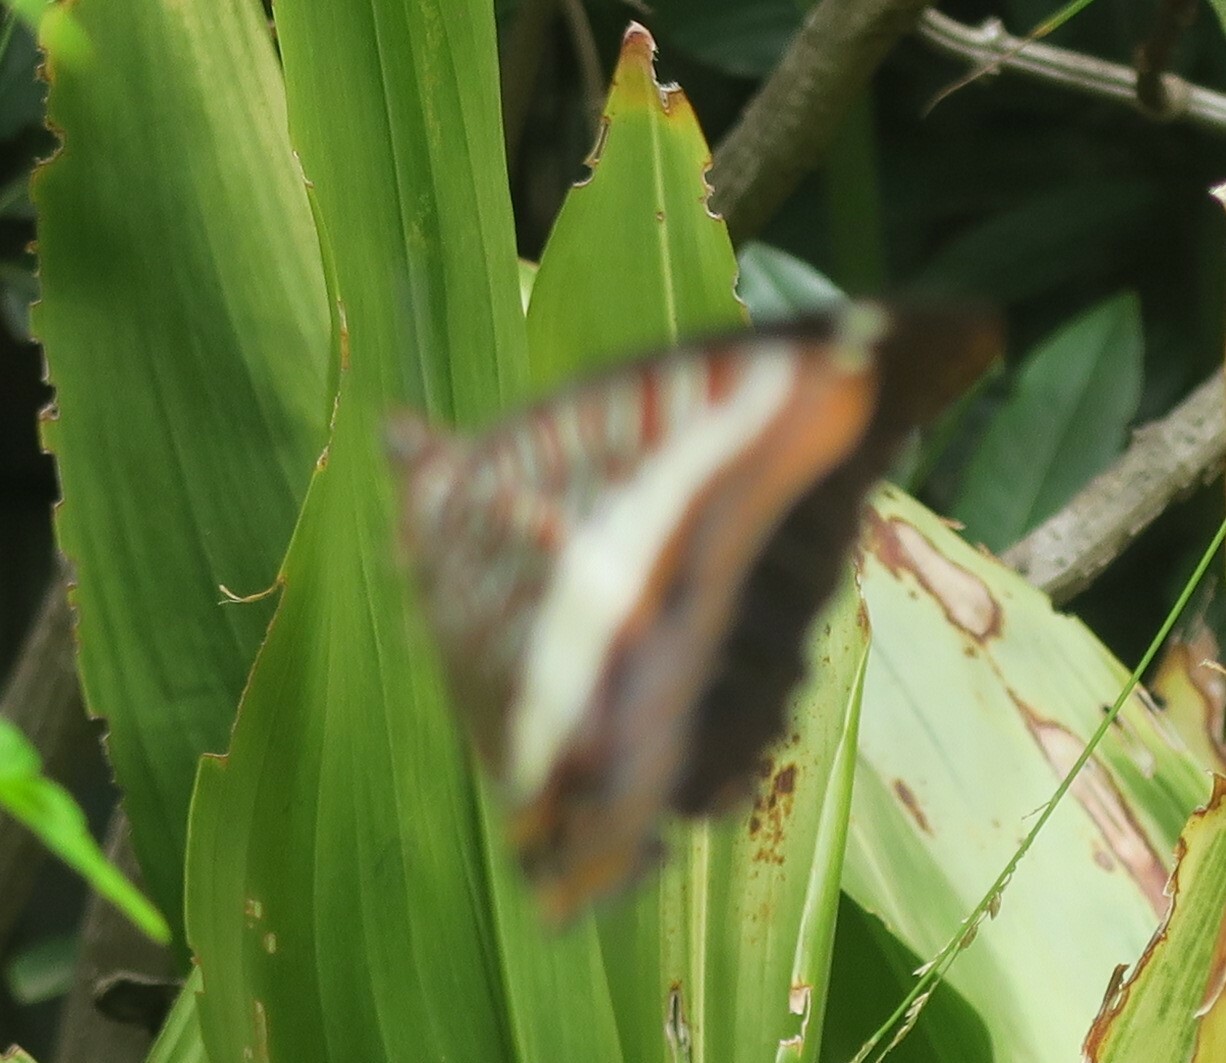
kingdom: Animalia
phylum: Arthropoda
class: Insecta
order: Lepidoptera
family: Nymphalidae
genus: Charaxes
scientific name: Charaxes brutus
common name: White-barred charaxes
